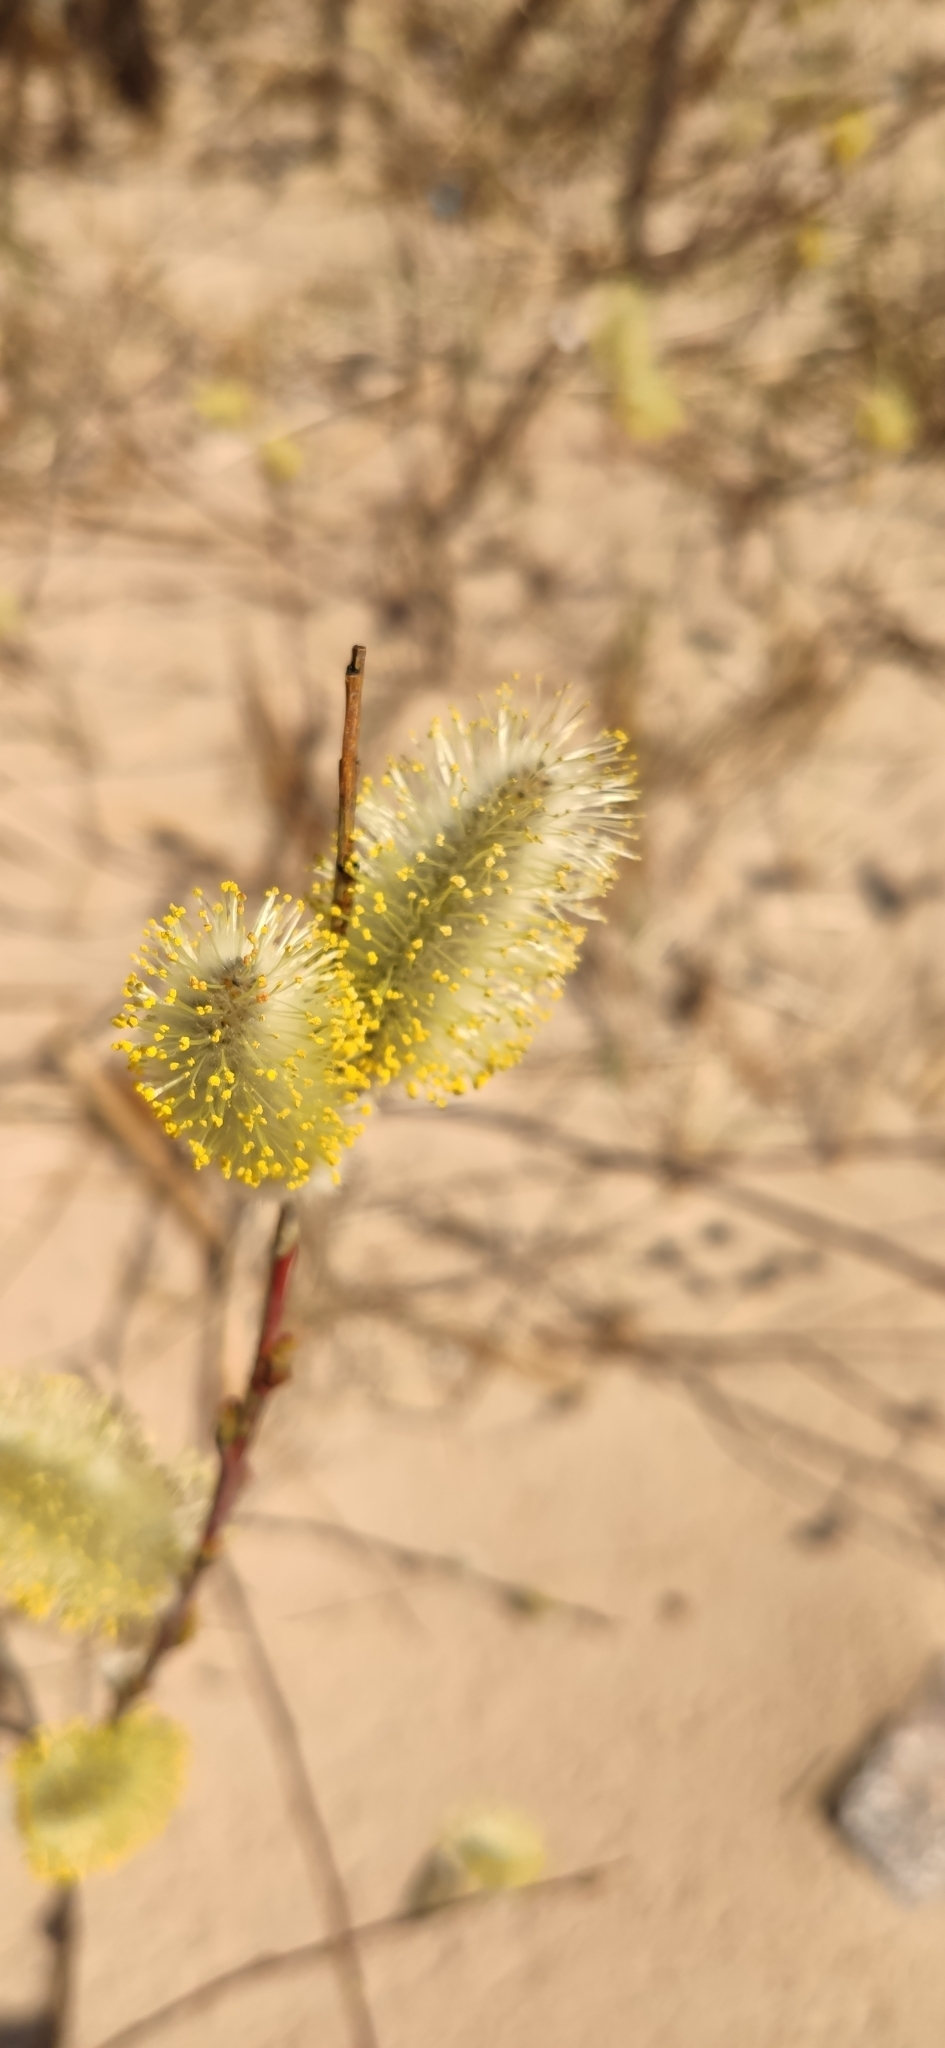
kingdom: Plantae
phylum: Tracheophyta
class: Magnoliopsida
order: Malpighiales
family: Salicaceae
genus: Salix
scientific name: Salix caprea
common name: Goat willow
